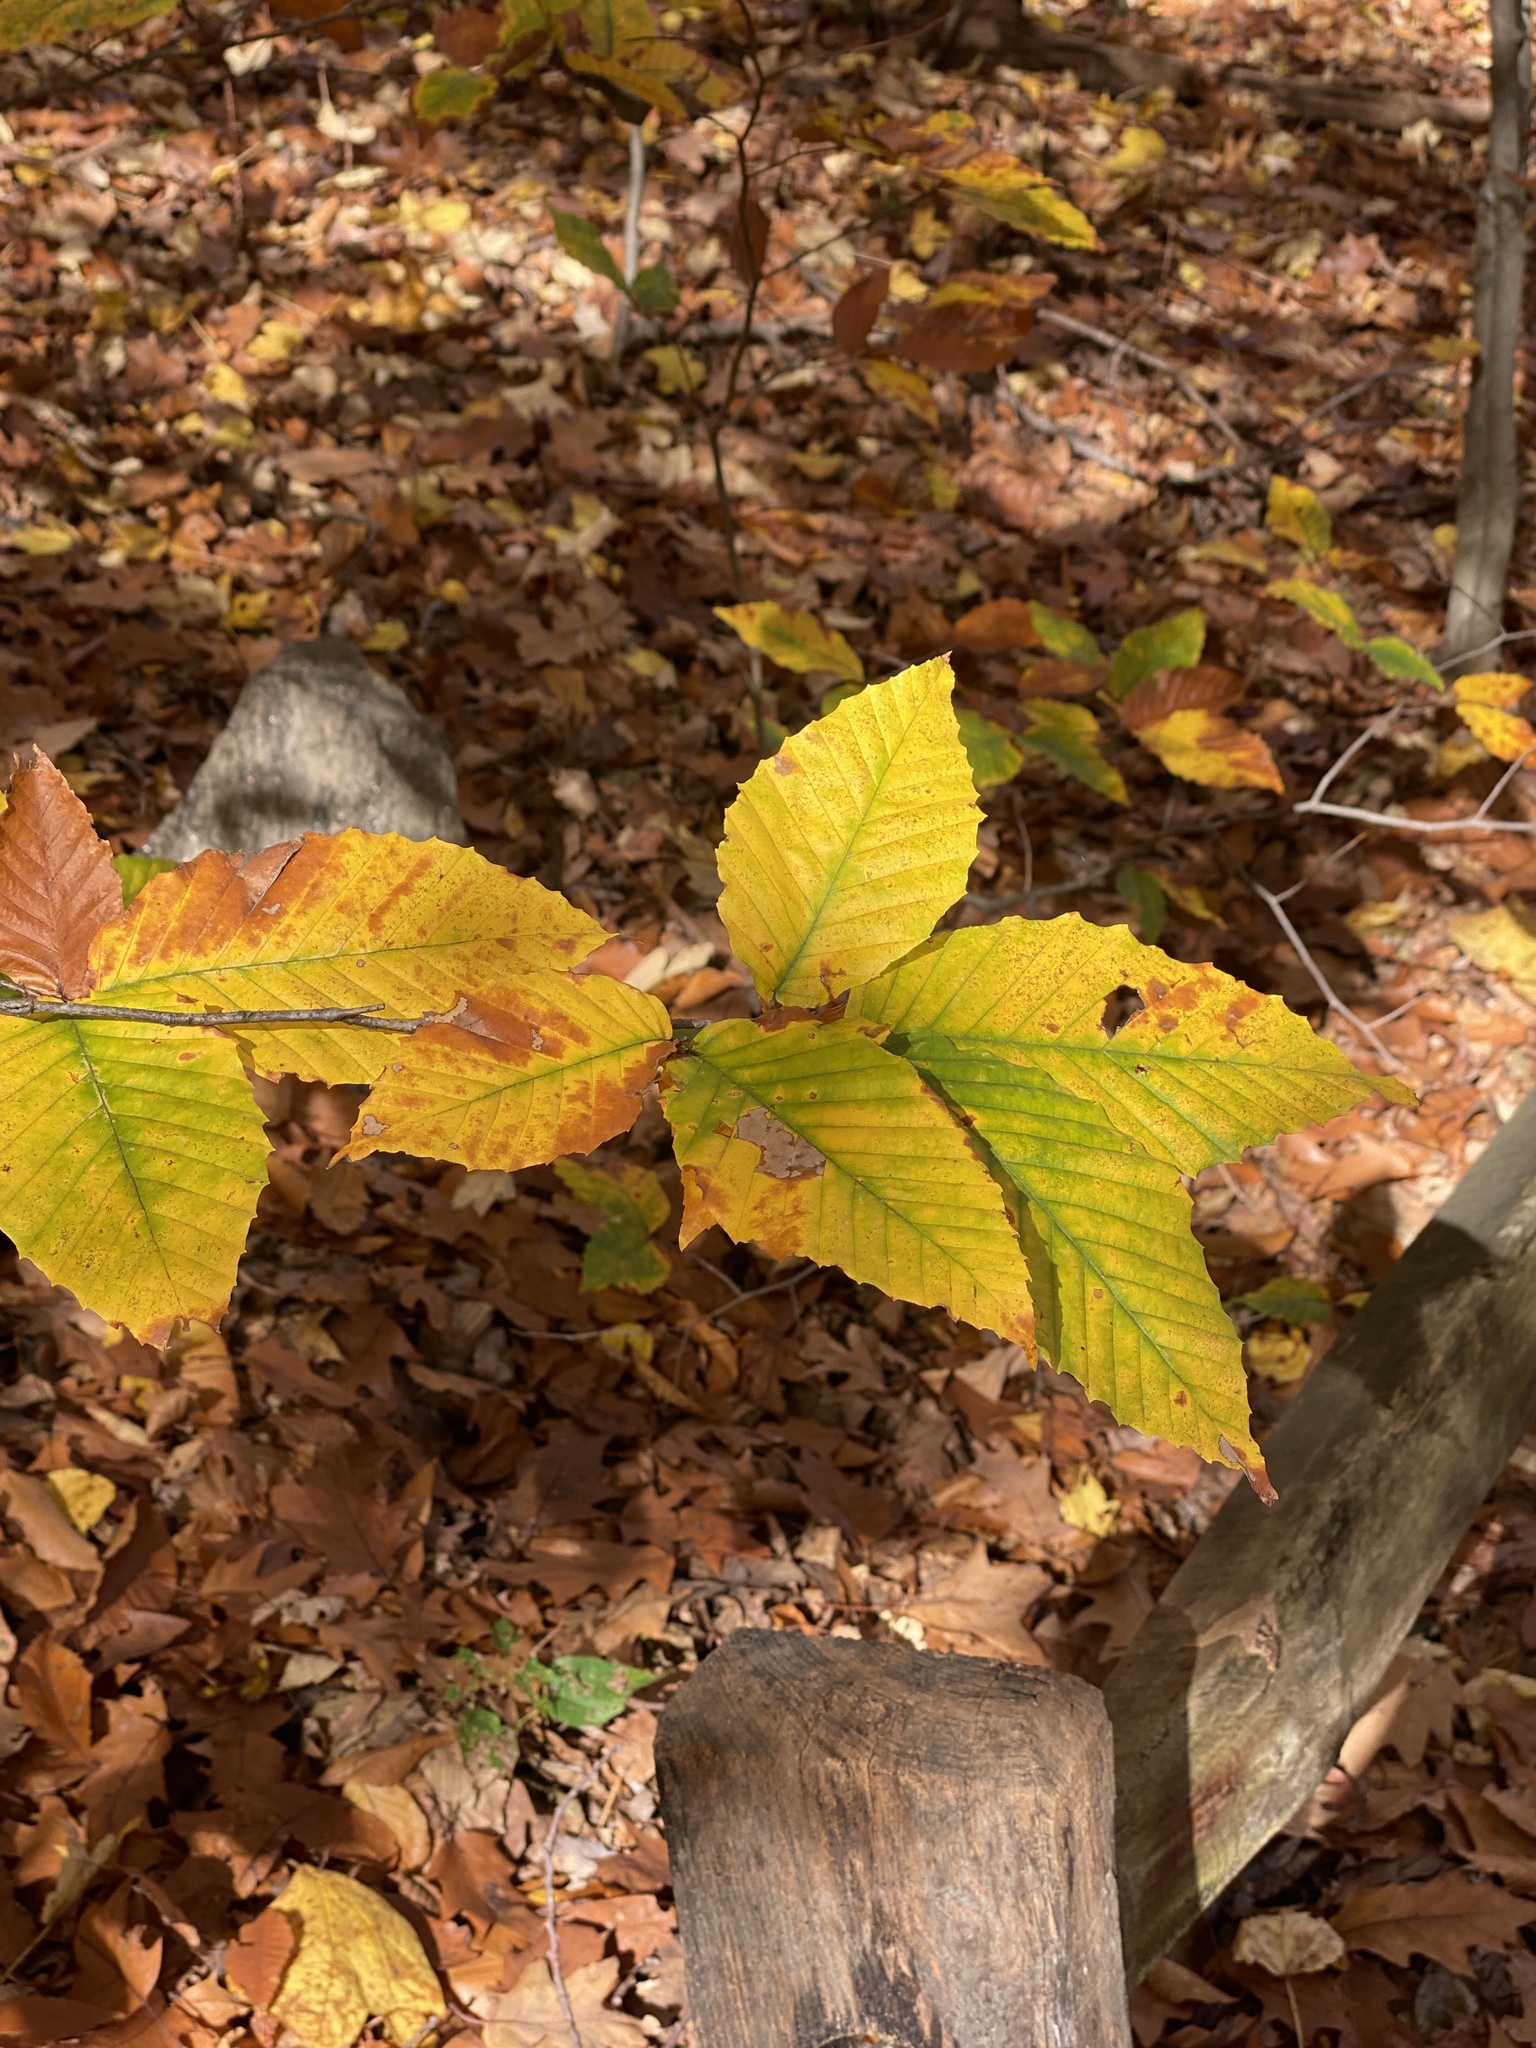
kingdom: Plantae
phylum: Tracheophyta
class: Magnoliopsida
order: Fagales
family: Fagaceae
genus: Fagus
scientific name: Fagus grandifolia
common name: American beech
